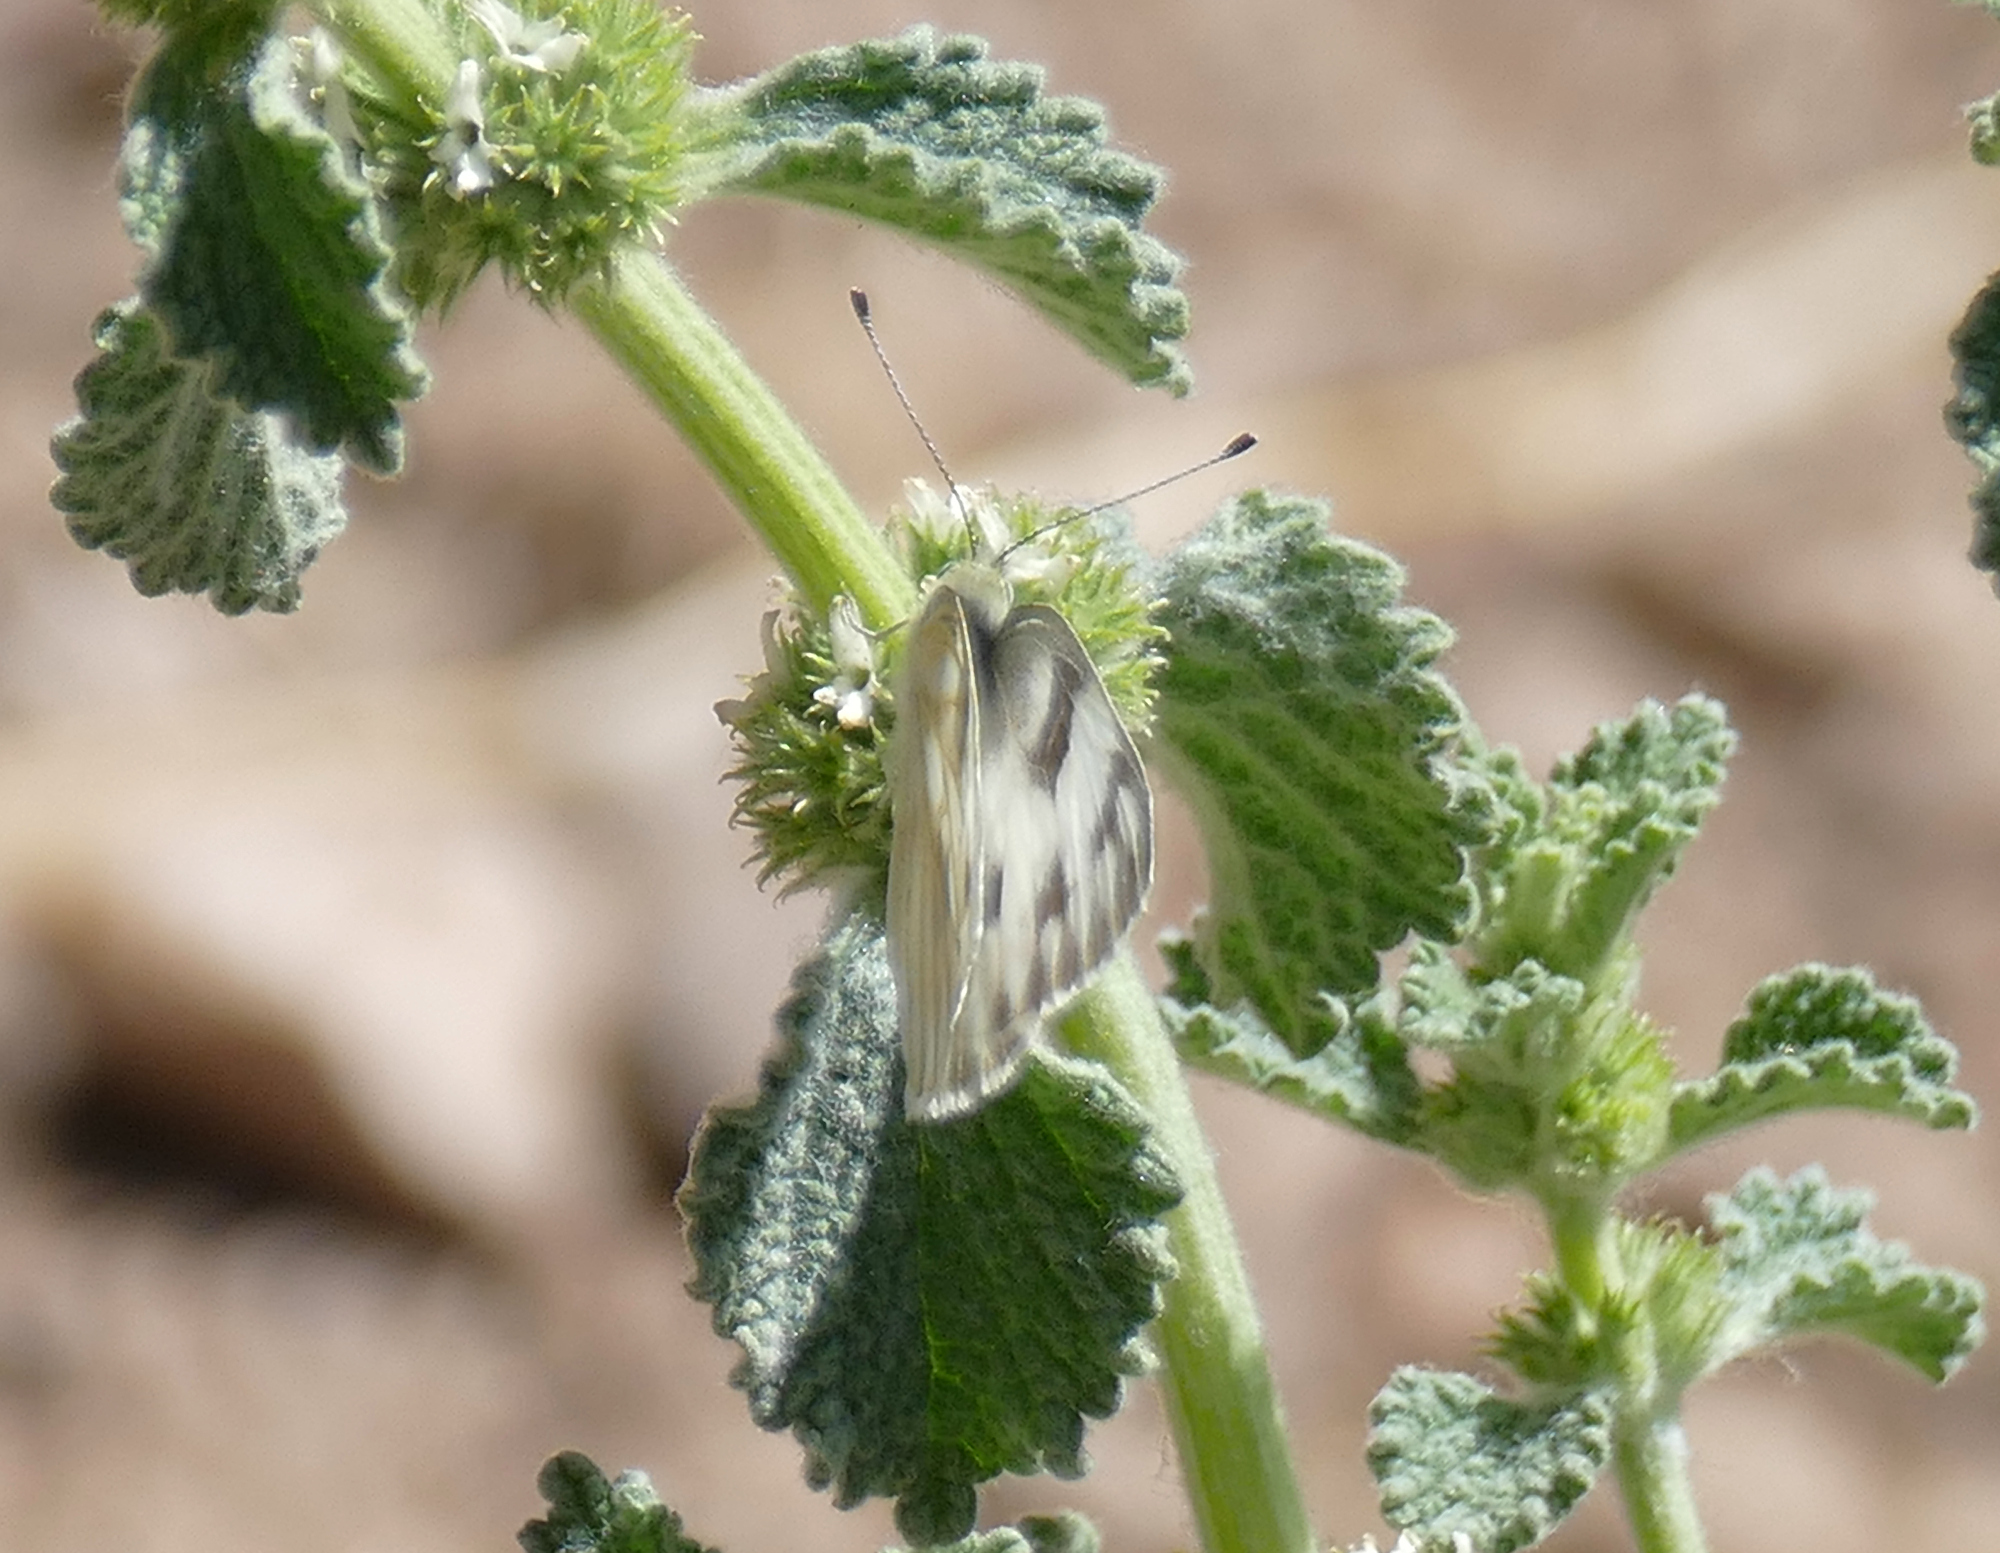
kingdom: Animalia
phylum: Arthropoda
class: Insecta
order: Lepidoptera
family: Pieridae
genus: Pontia
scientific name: Pontia protodice
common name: Checkered white
